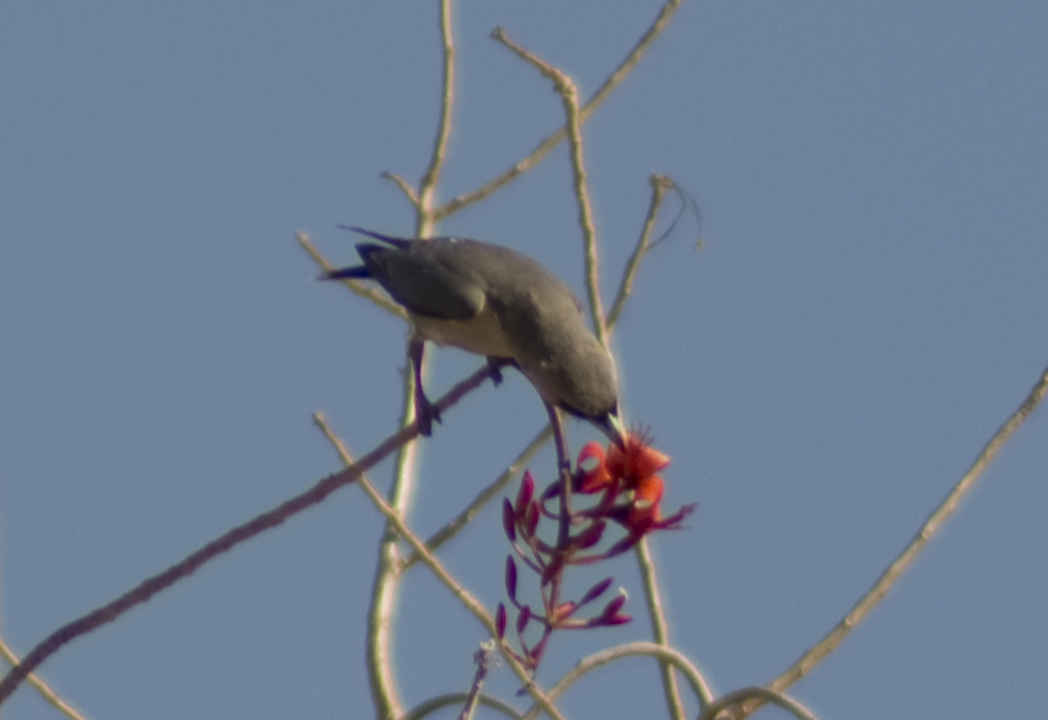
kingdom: Animalia
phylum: Chordata
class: Aves
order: Passeriformes
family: Artamidae
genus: Artamus
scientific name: Artamus cinereus
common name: Black-faced woodswallow
